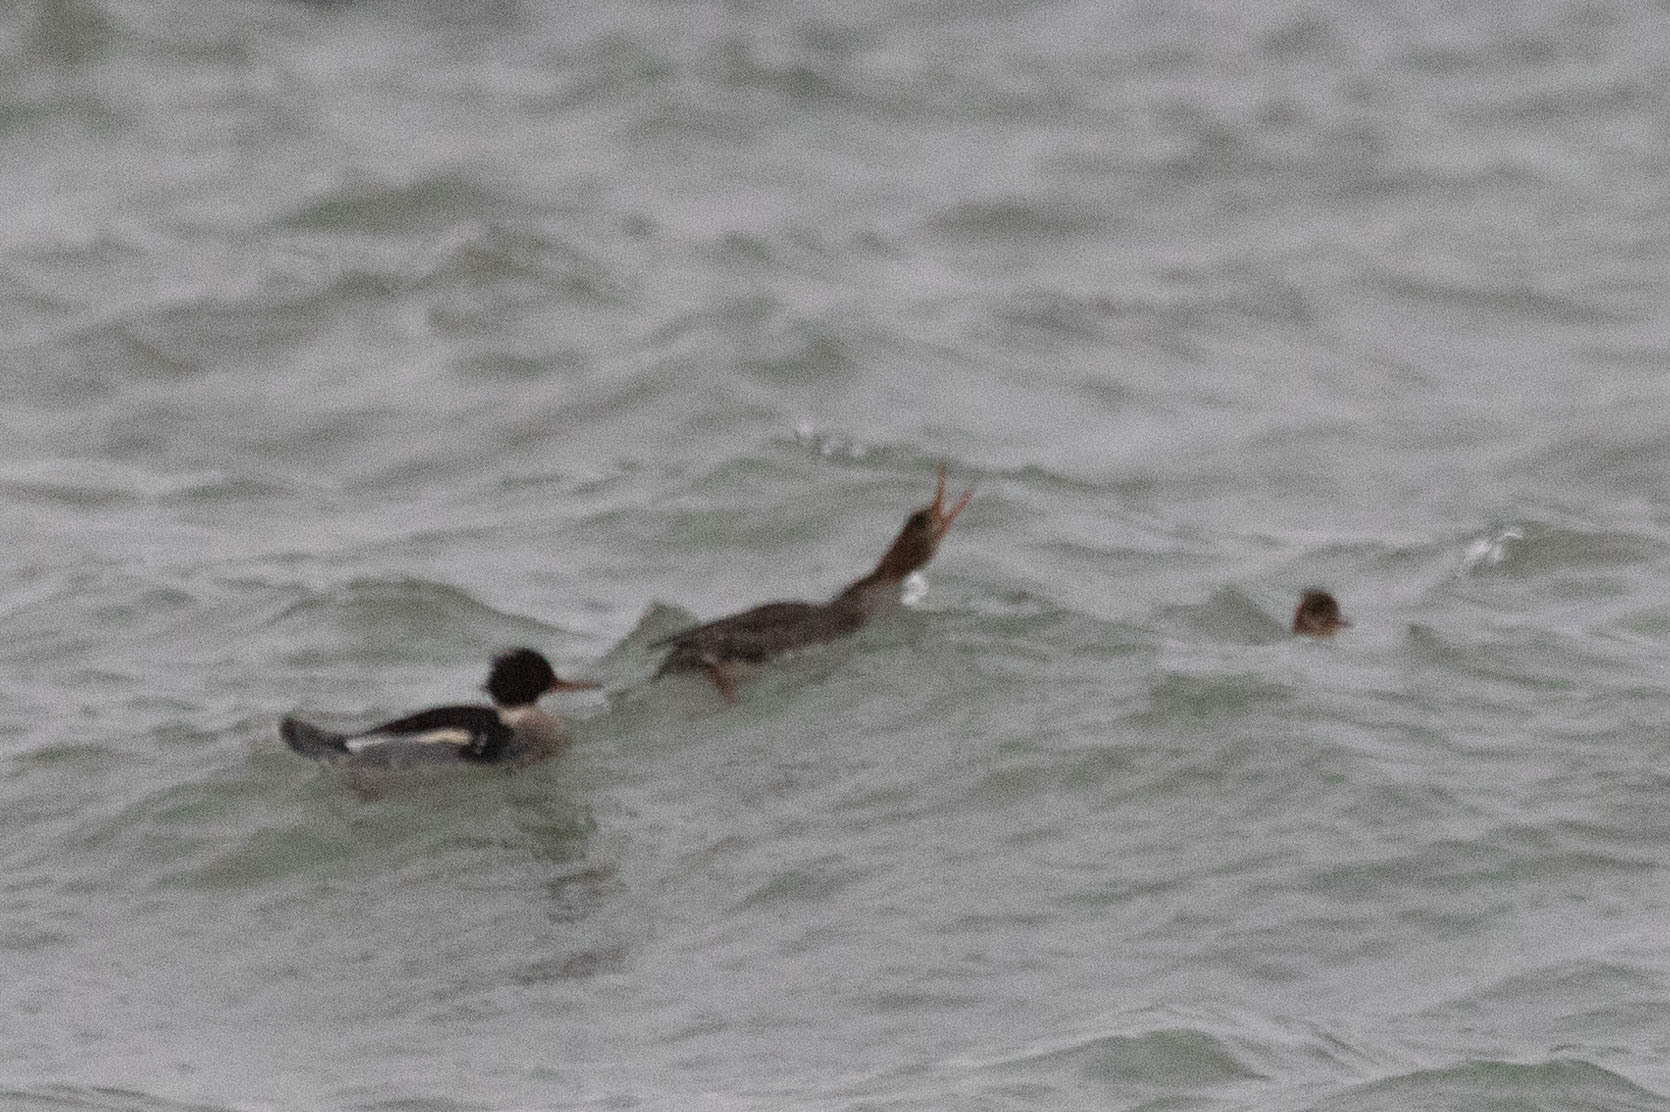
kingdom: Animalia
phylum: Chordata
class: Aves
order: Anseriformes
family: Anatidae
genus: Mergus
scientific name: Mergus serrator
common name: Red-breasted merganser
